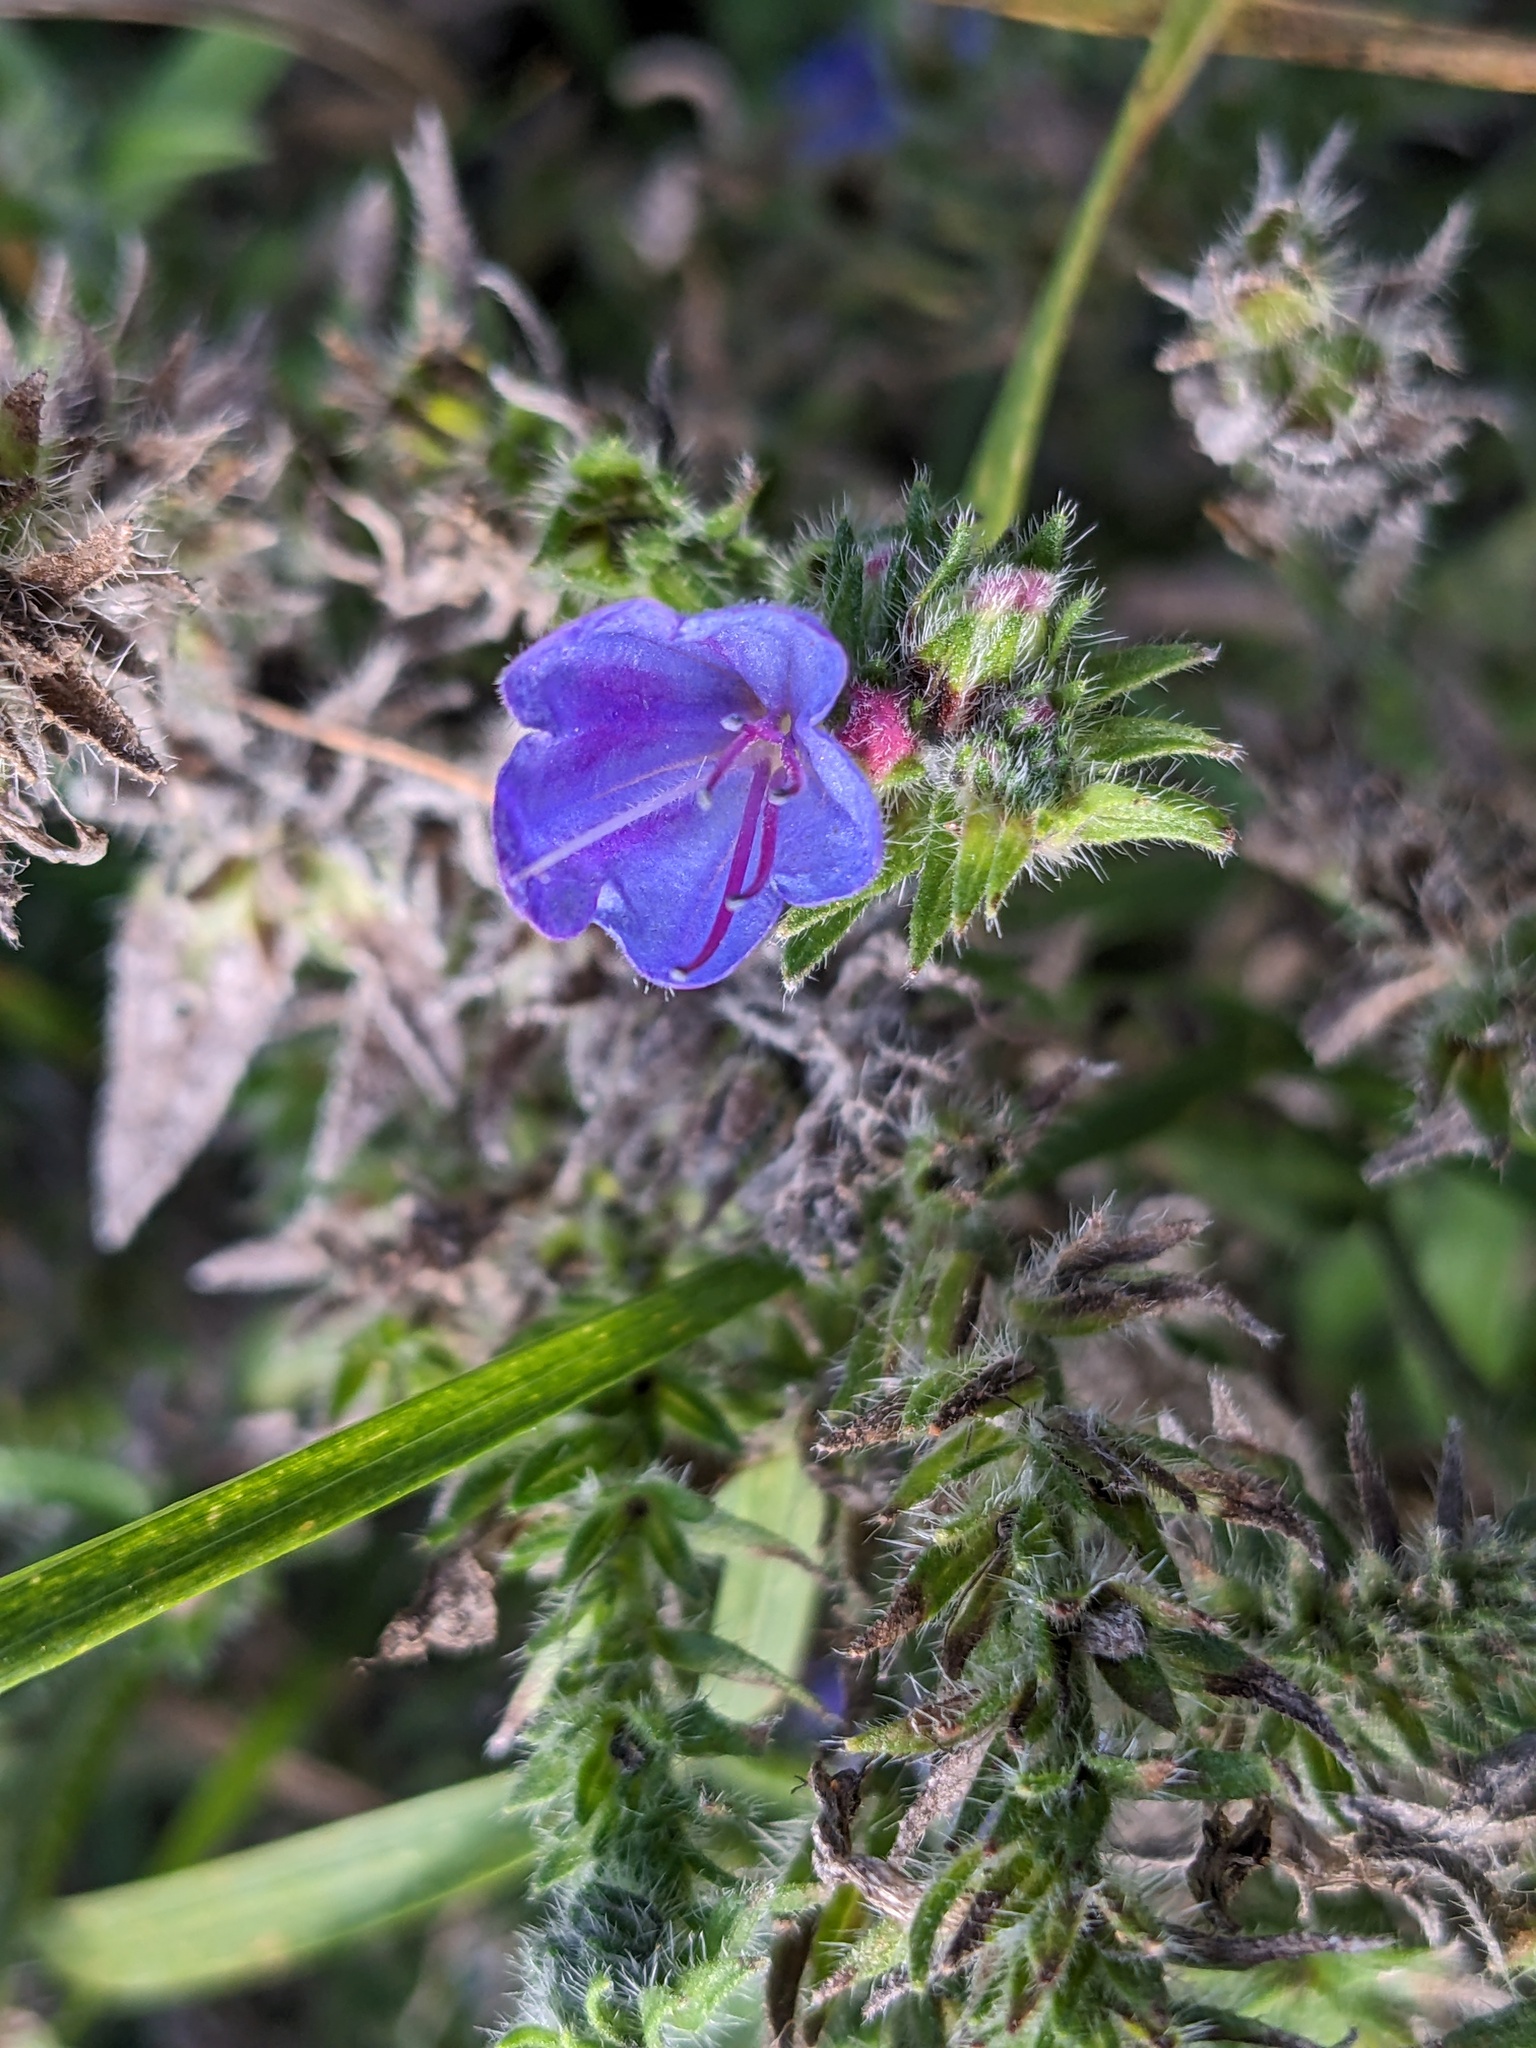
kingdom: Plantae
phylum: Tracheophyta
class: Magnoliopsida
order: Boraginales
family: Boraginaceae
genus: Echium
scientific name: Echium vulgare
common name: Common viper's bugloss
